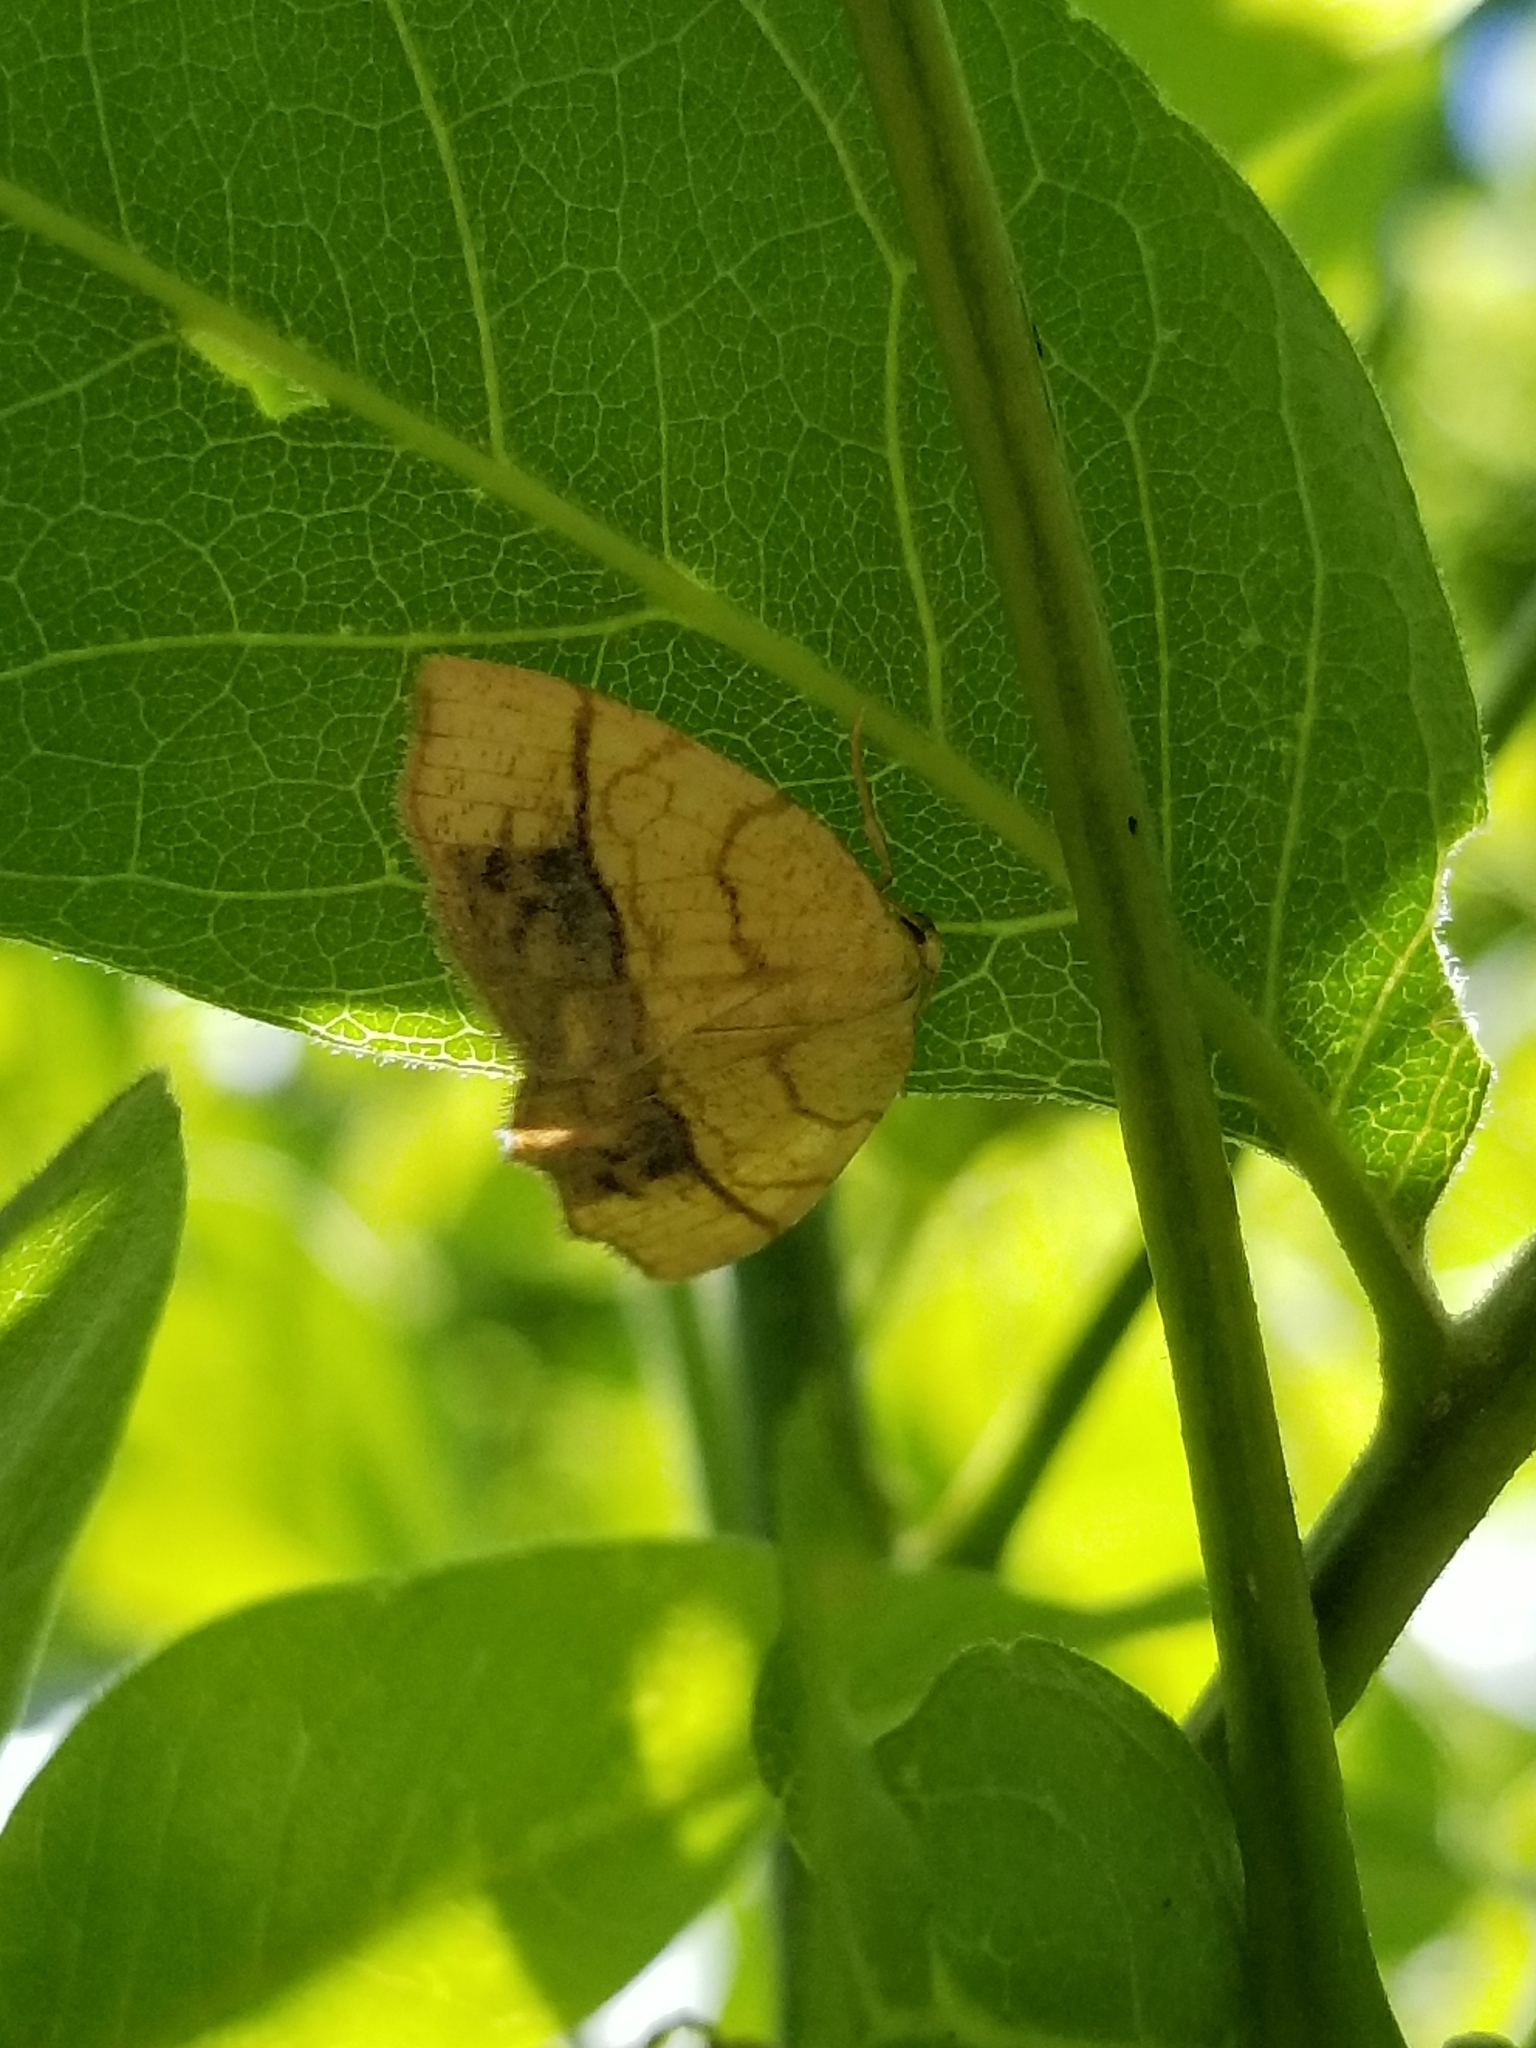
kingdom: Animalia
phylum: Arthropoda
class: Insecta
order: Lepidoptera
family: Geometridae
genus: Nematocampa
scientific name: Nematocampa resistaria
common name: Horned spanworm moth
